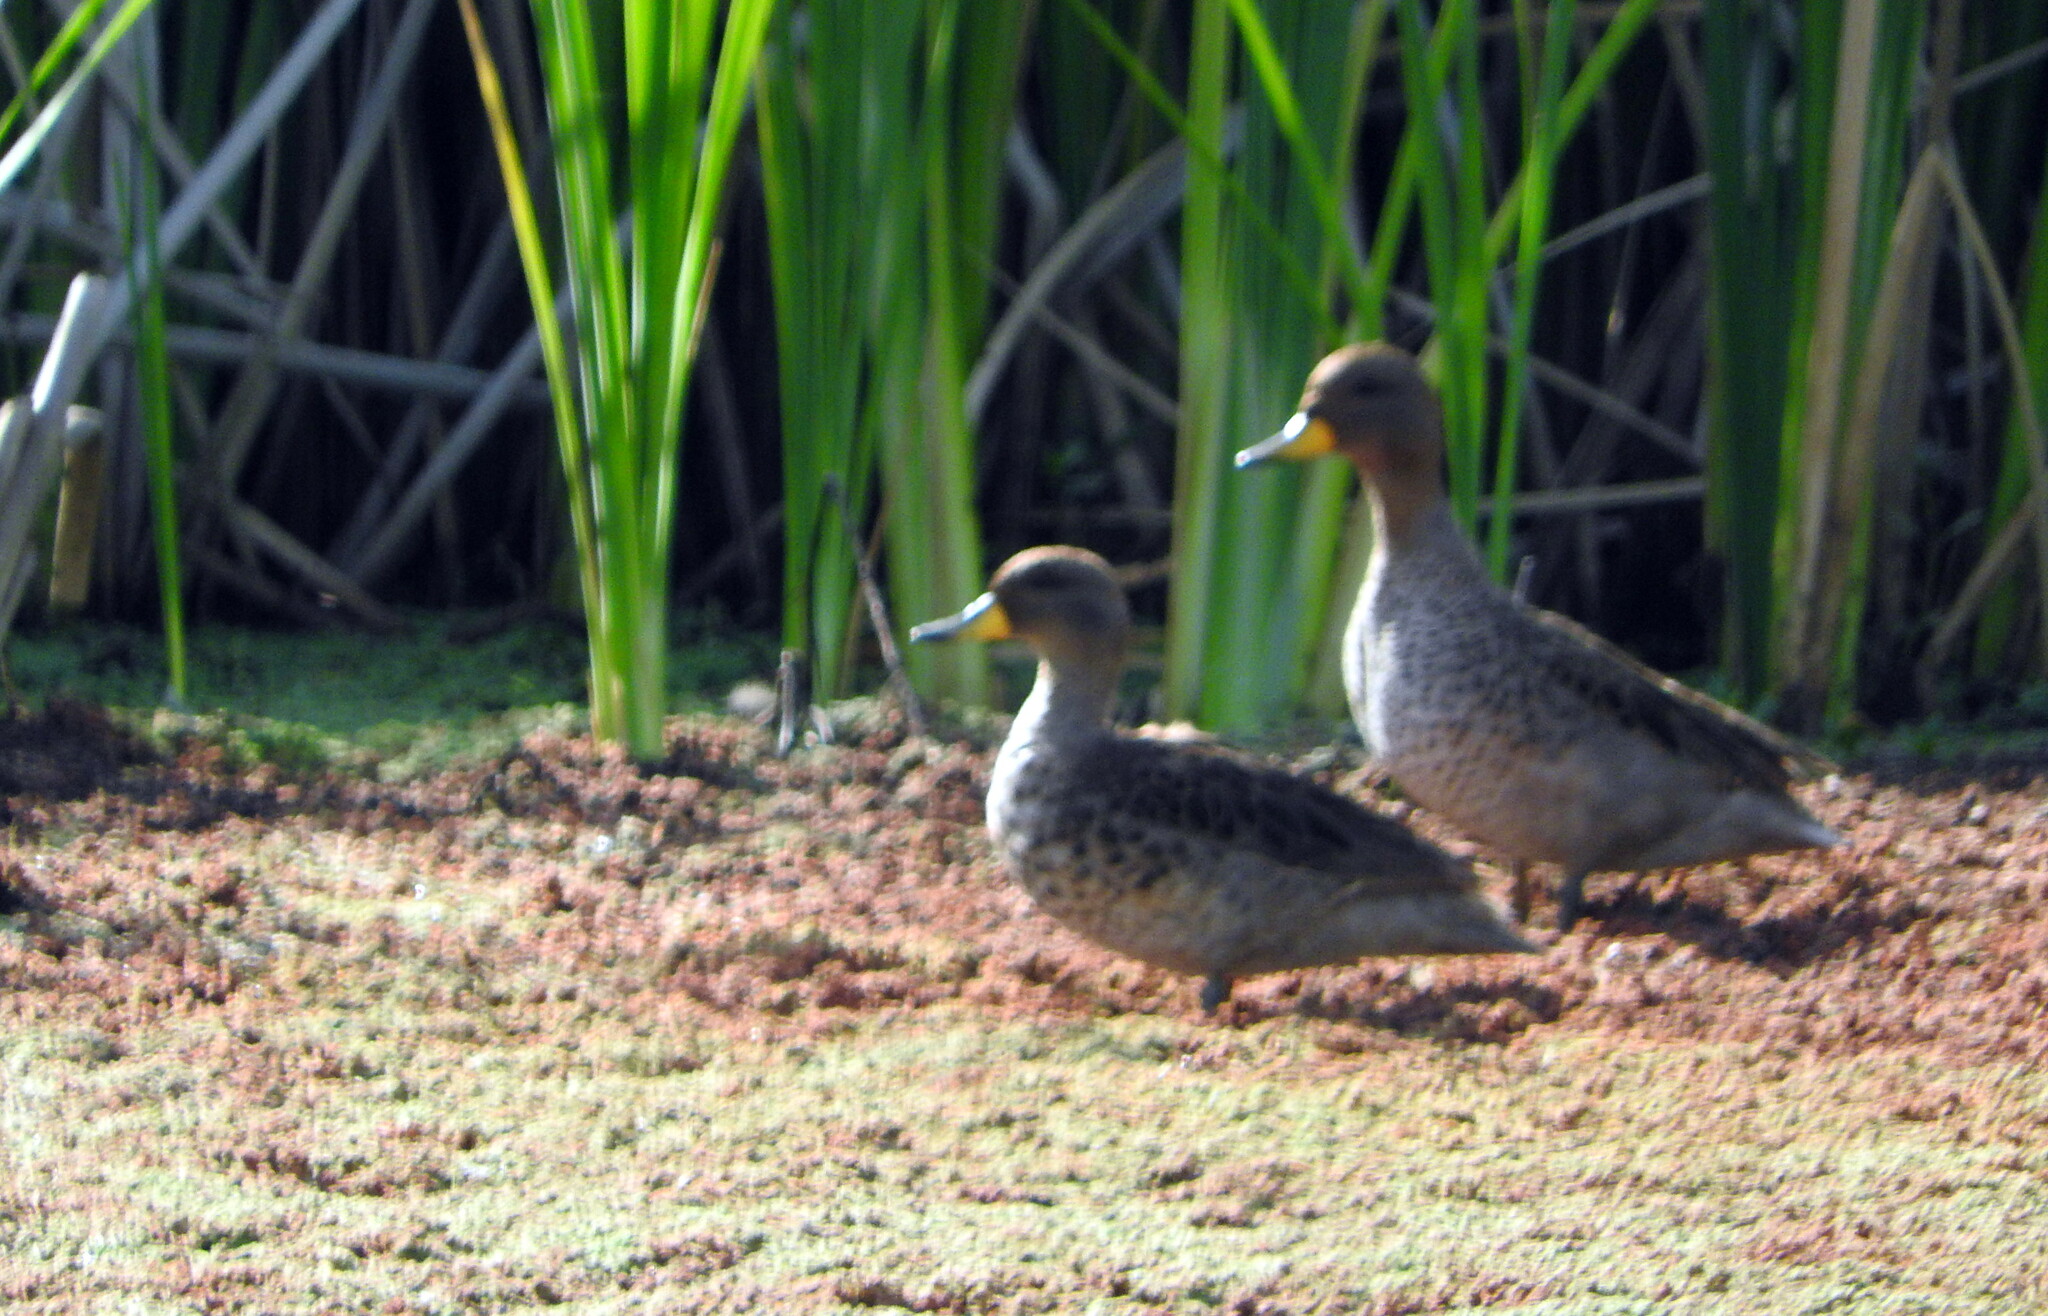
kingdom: Animalia
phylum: Chordata
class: Aves
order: Anseriformes
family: Anatidae
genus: Anas
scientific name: Anas flavirostris
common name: Yellow-billed teal
